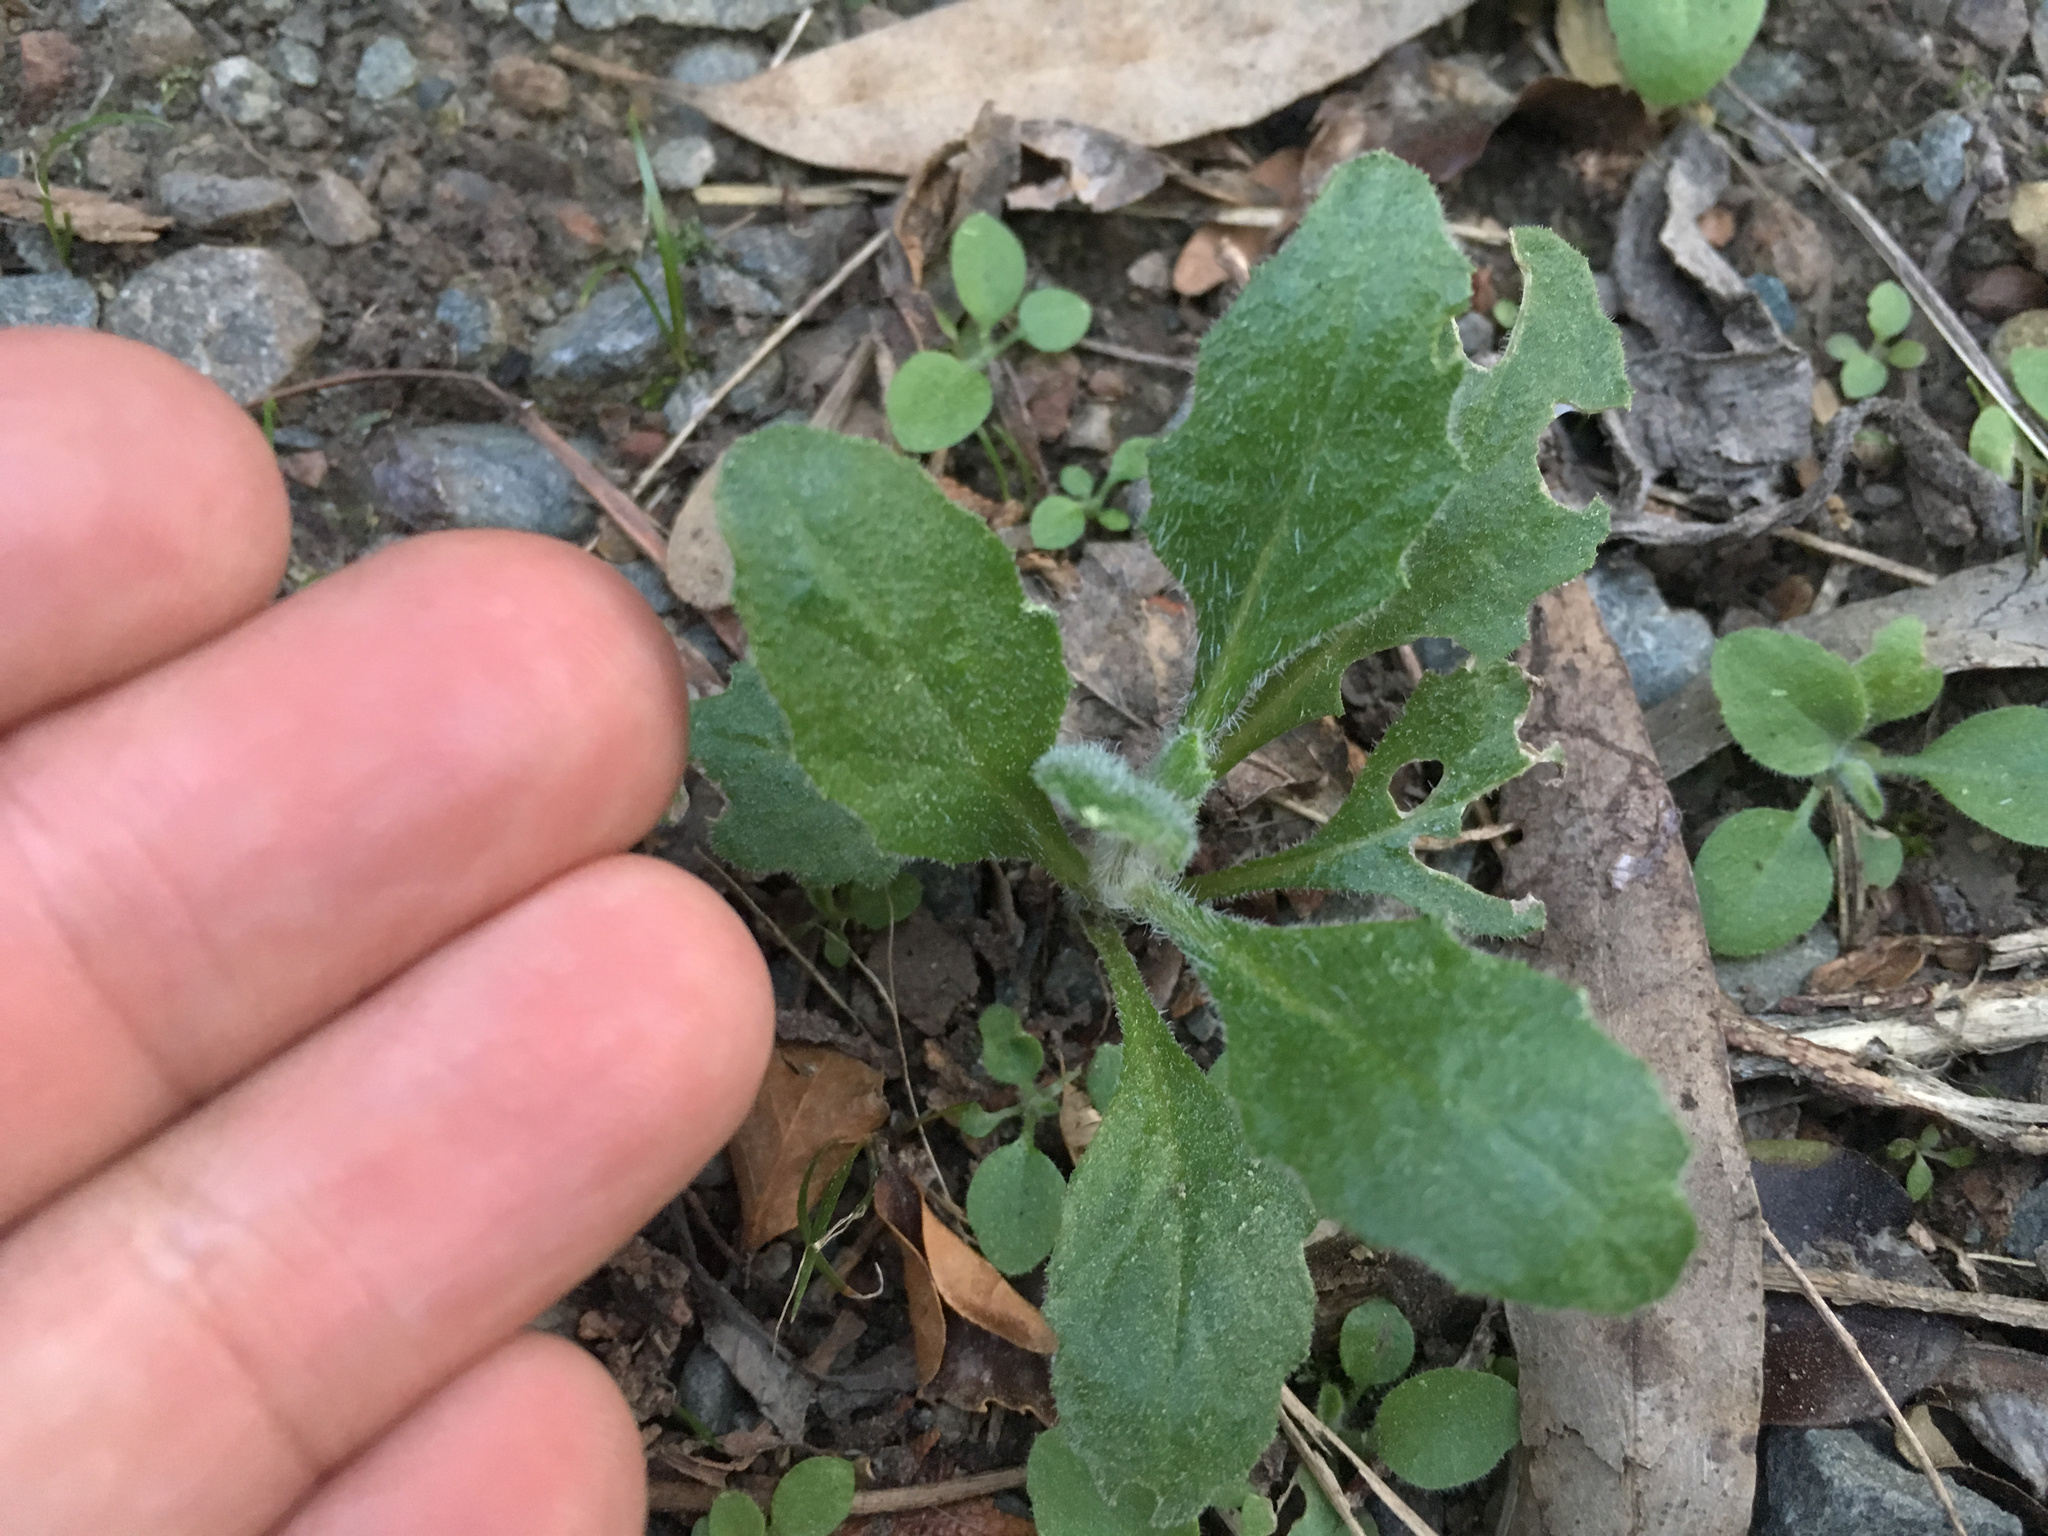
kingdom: Plantae
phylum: Tracheophyta
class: Magnoliopsida
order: Asterales
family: Asteraceae
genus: Senecio
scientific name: Senecio glomeratus
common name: Cutleaf burnweed
